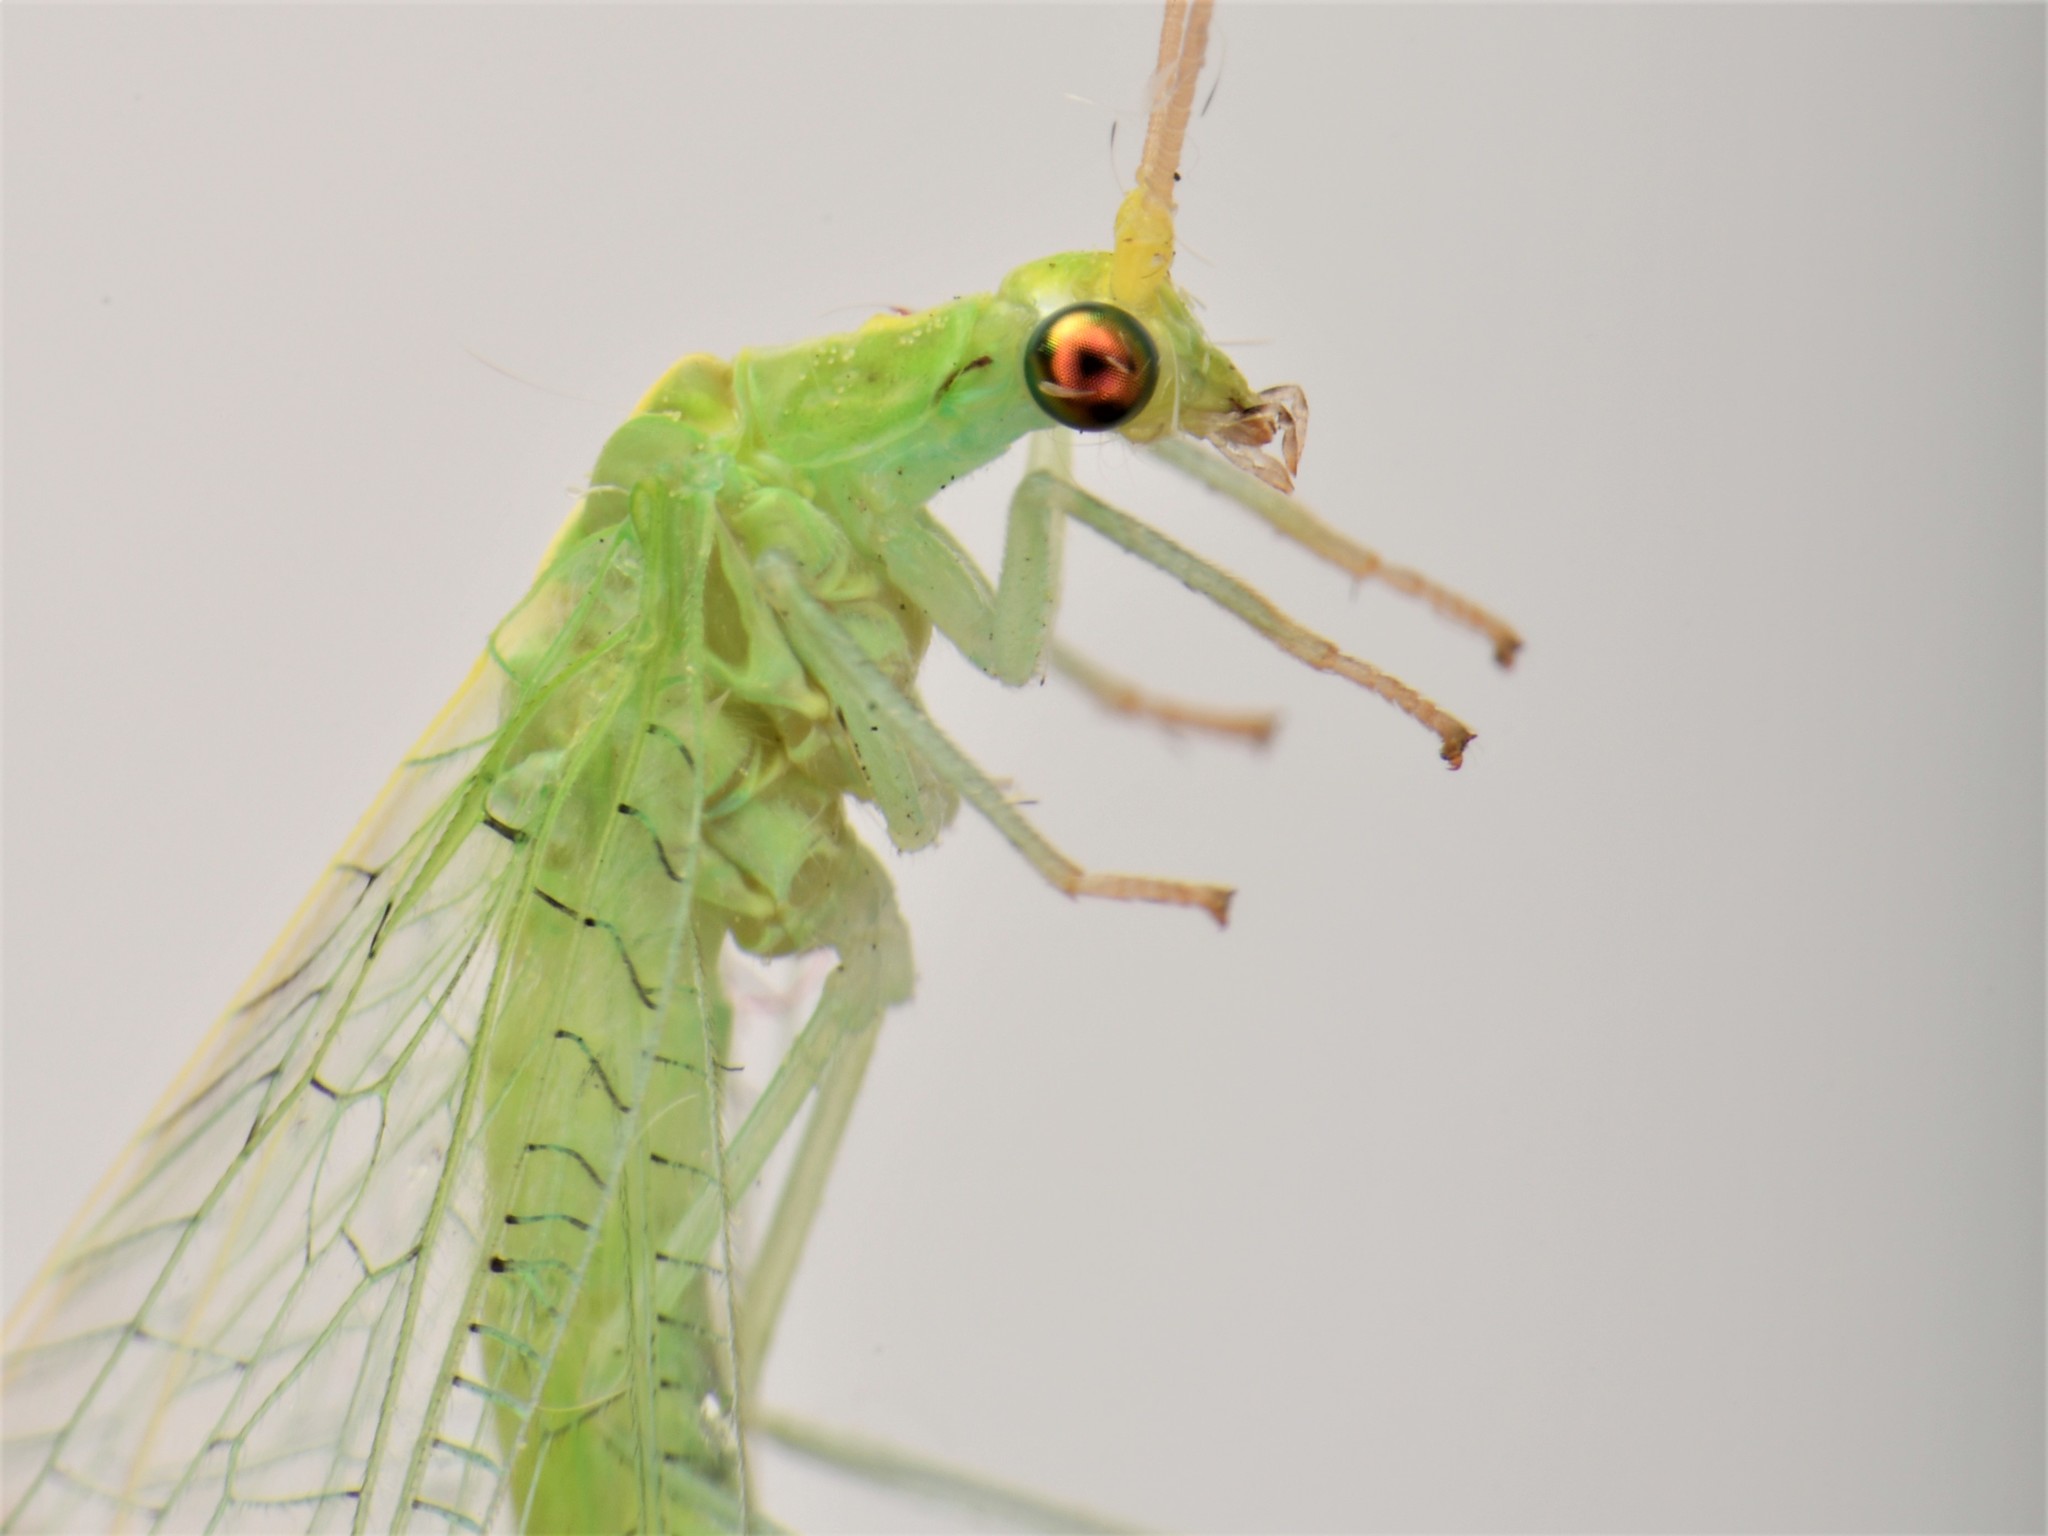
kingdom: Animalia
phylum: Arthropoda
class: Insecta
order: Neuroptera
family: Chrysopidae
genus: Nineta
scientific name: Nineta flava
